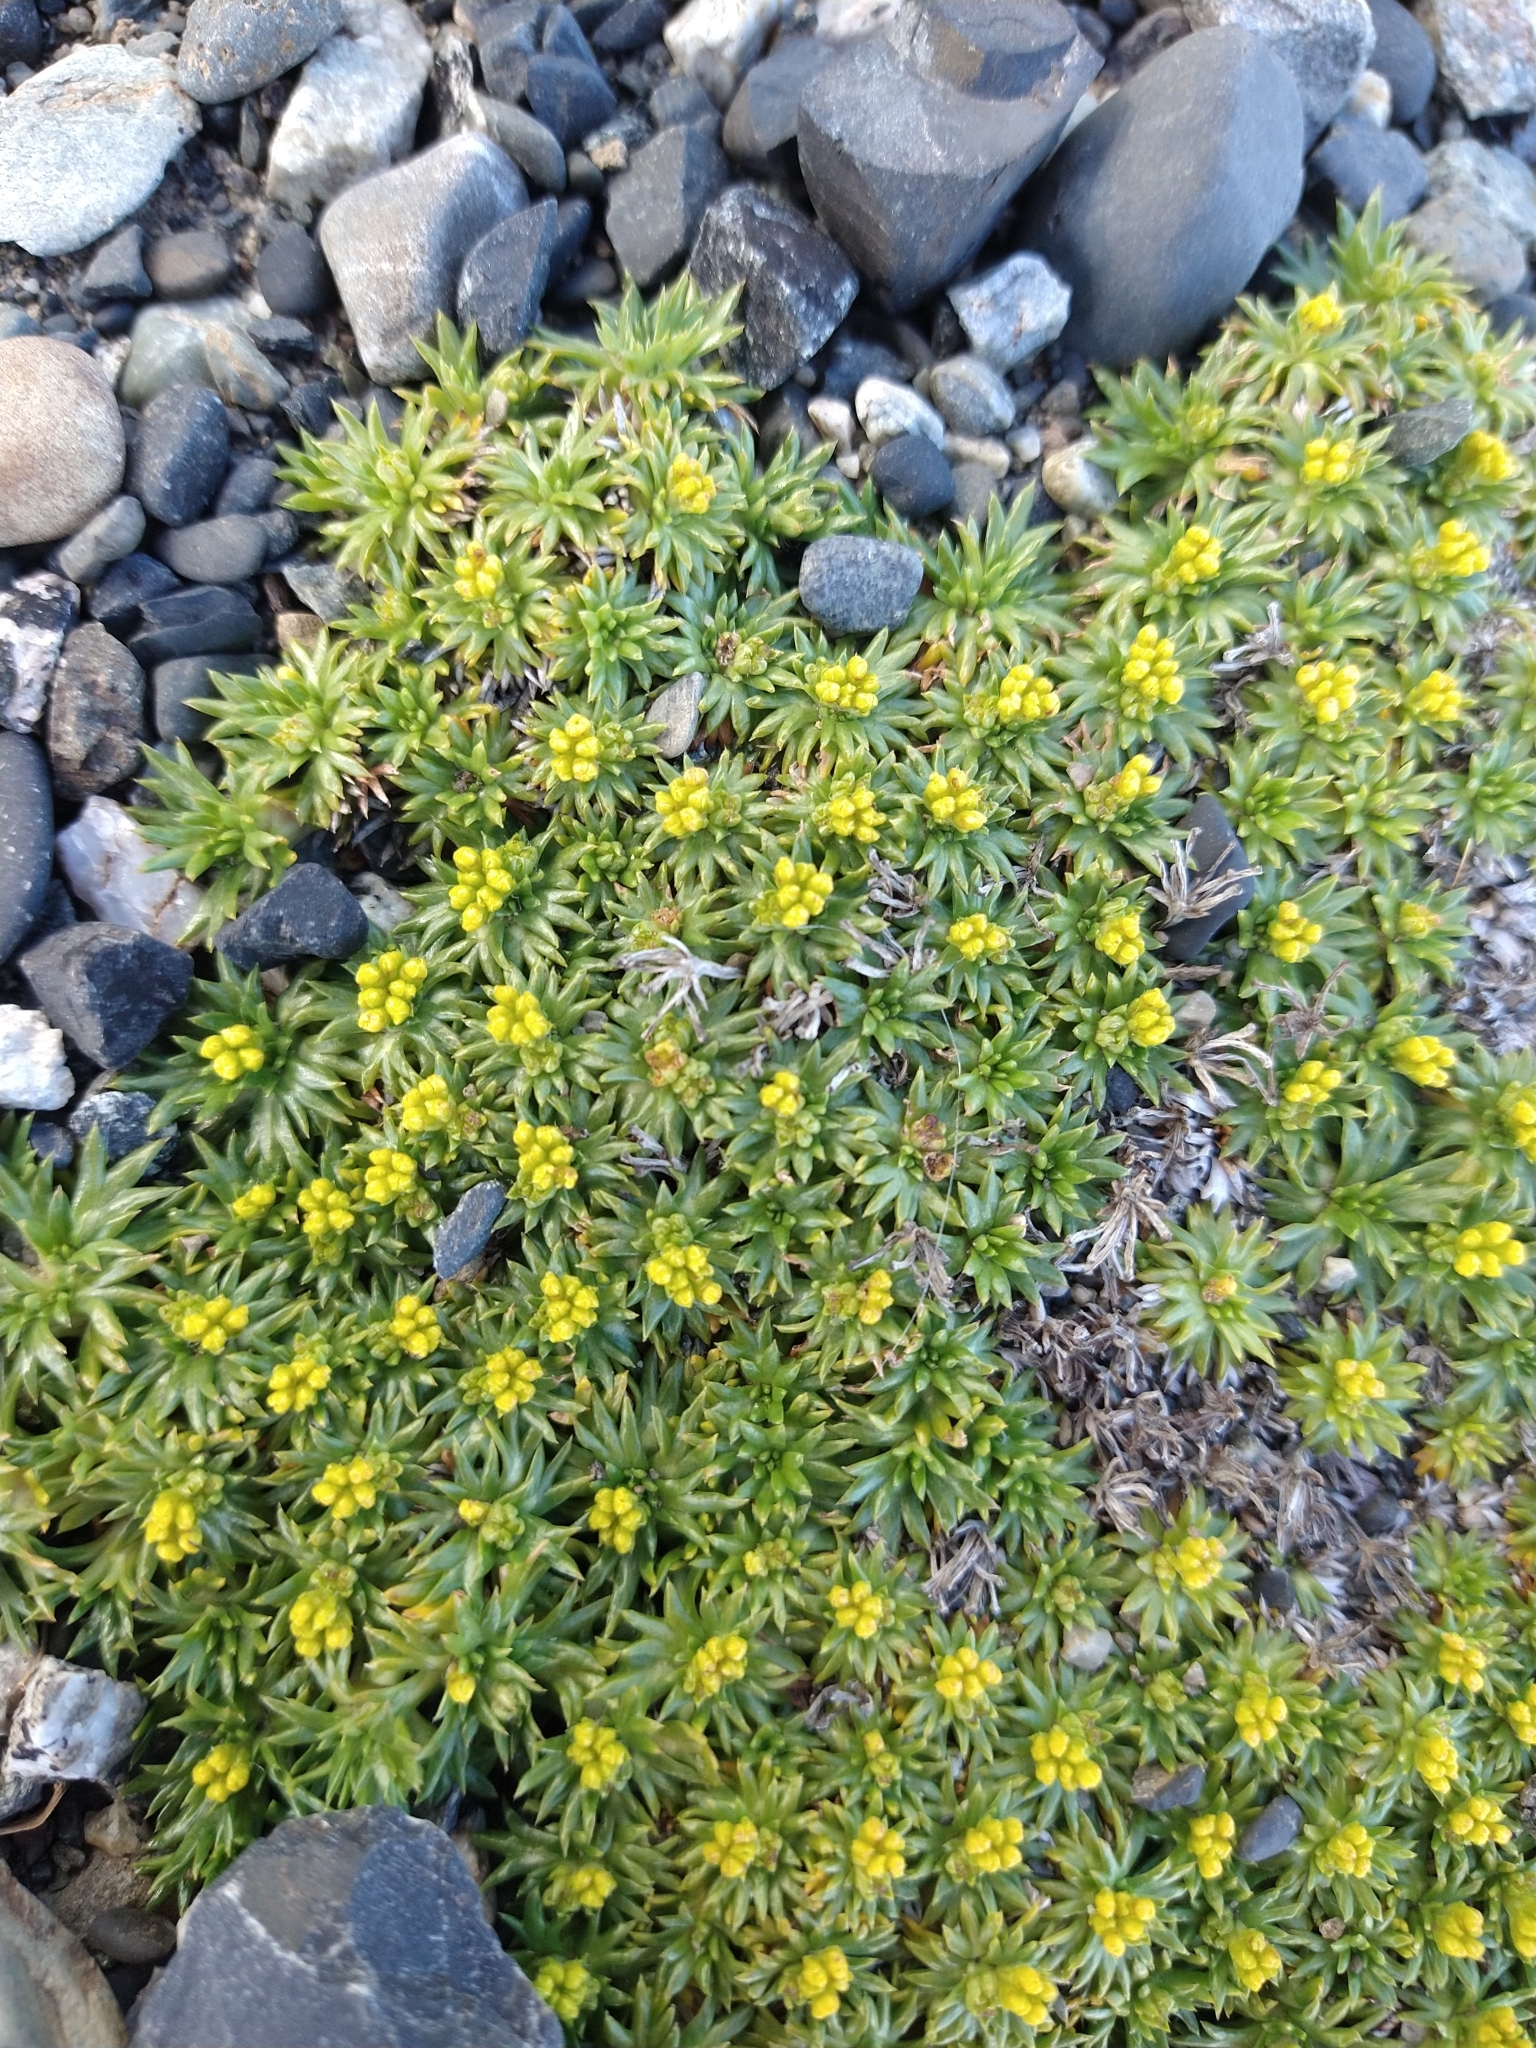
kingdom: Plantae
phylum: Tracheophyta
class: Magnoliopsida
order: Apiales
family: Apiaceae
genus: Azorella
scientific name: Azorella trifurcata
